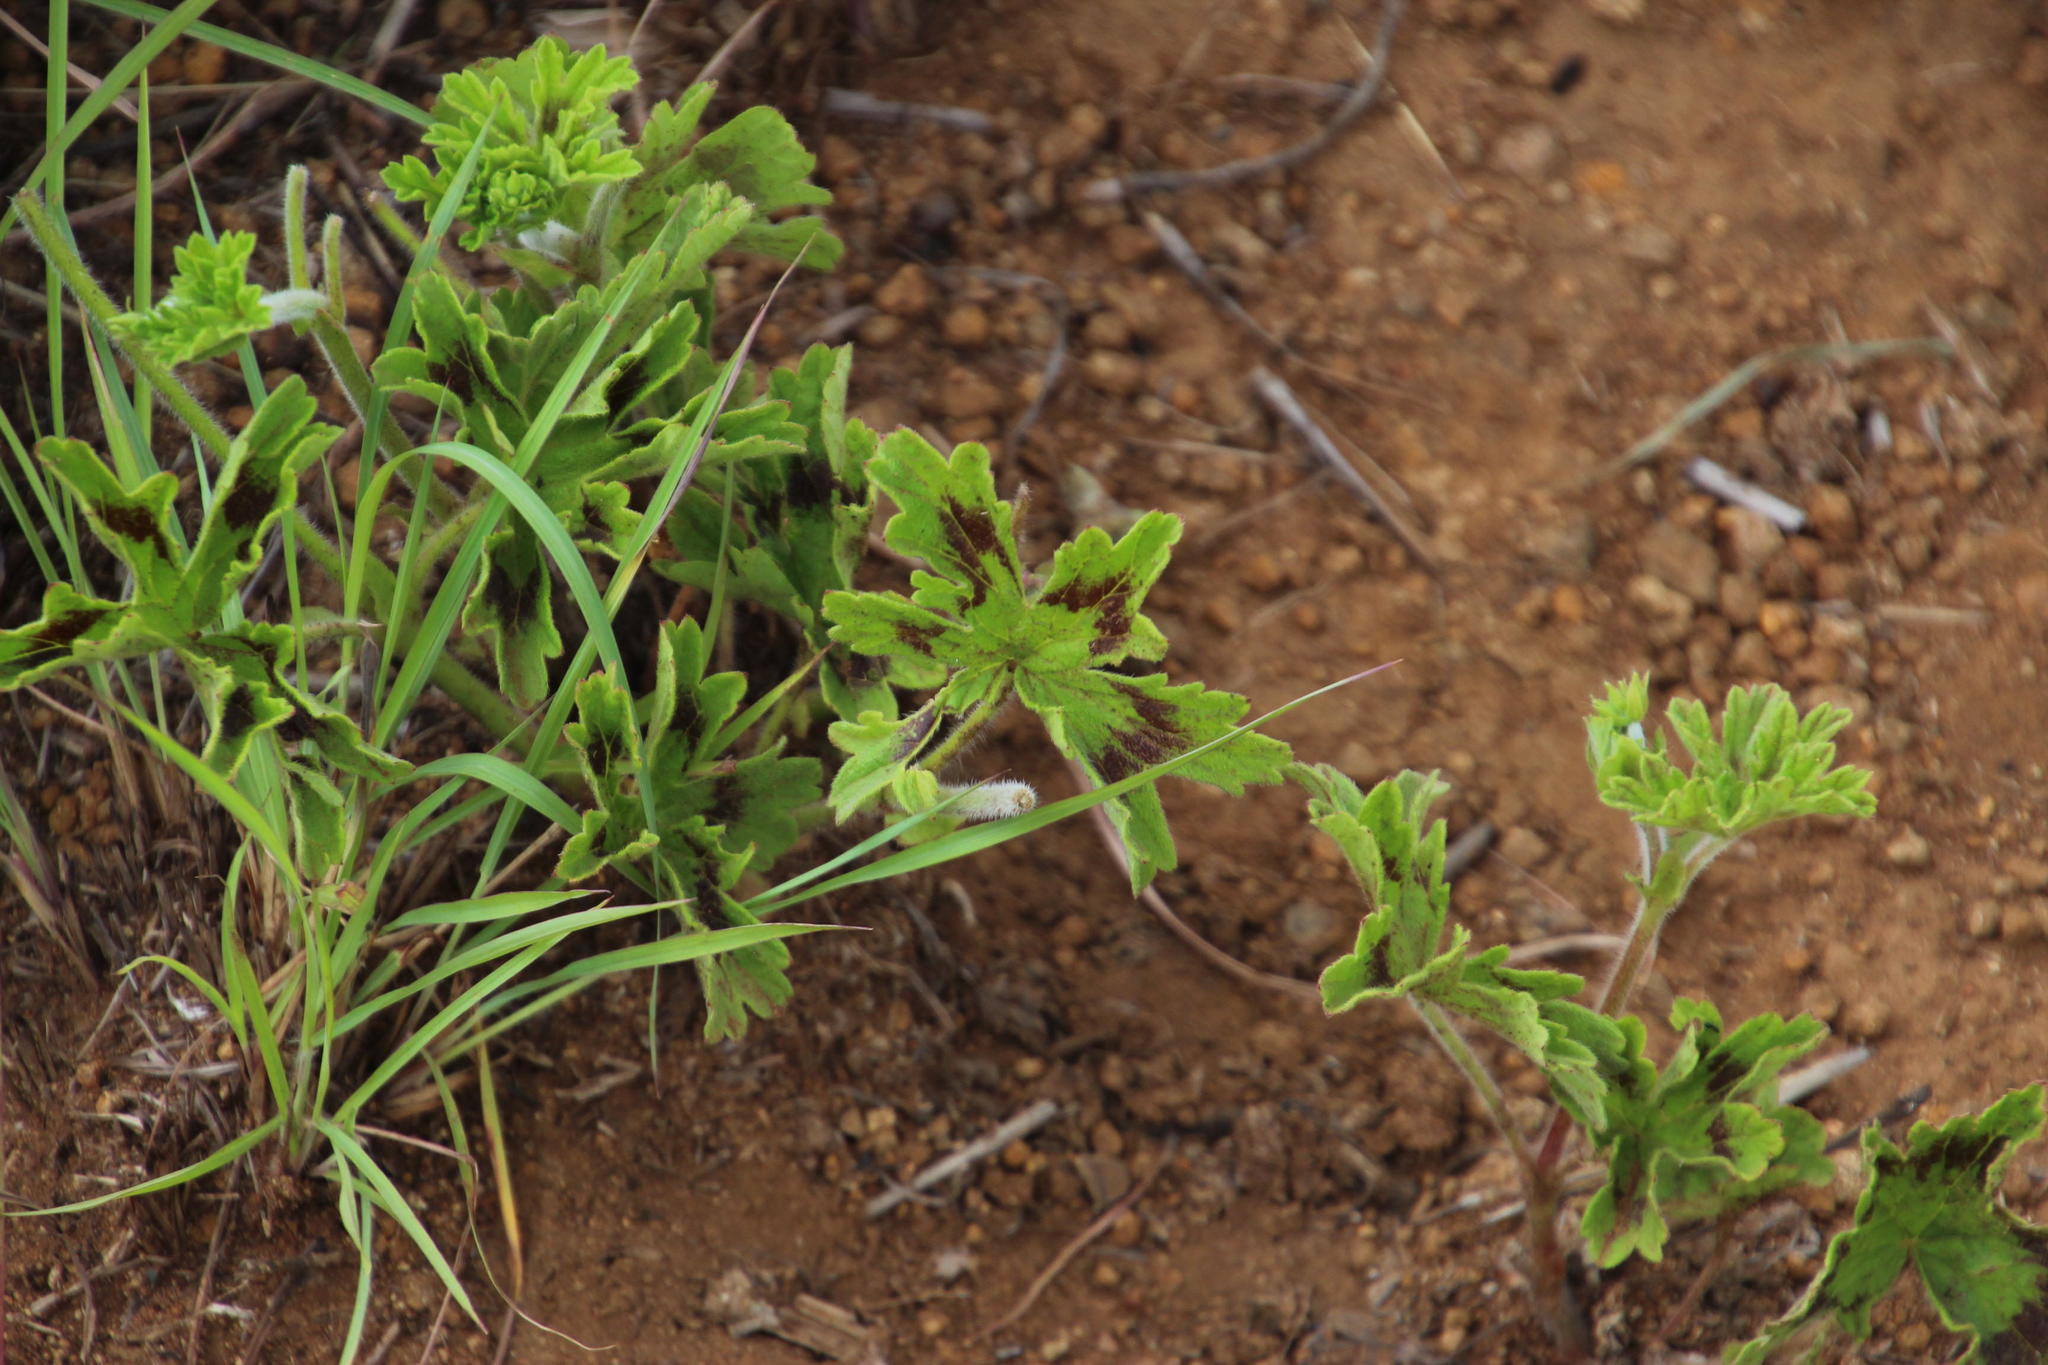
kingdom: Plantae
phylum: Tracheophyta
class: Magnoliopsida
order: Geraniales
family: Geraniaceae
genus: Pelargonium
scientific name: Pelargonium ranunculophyllum
